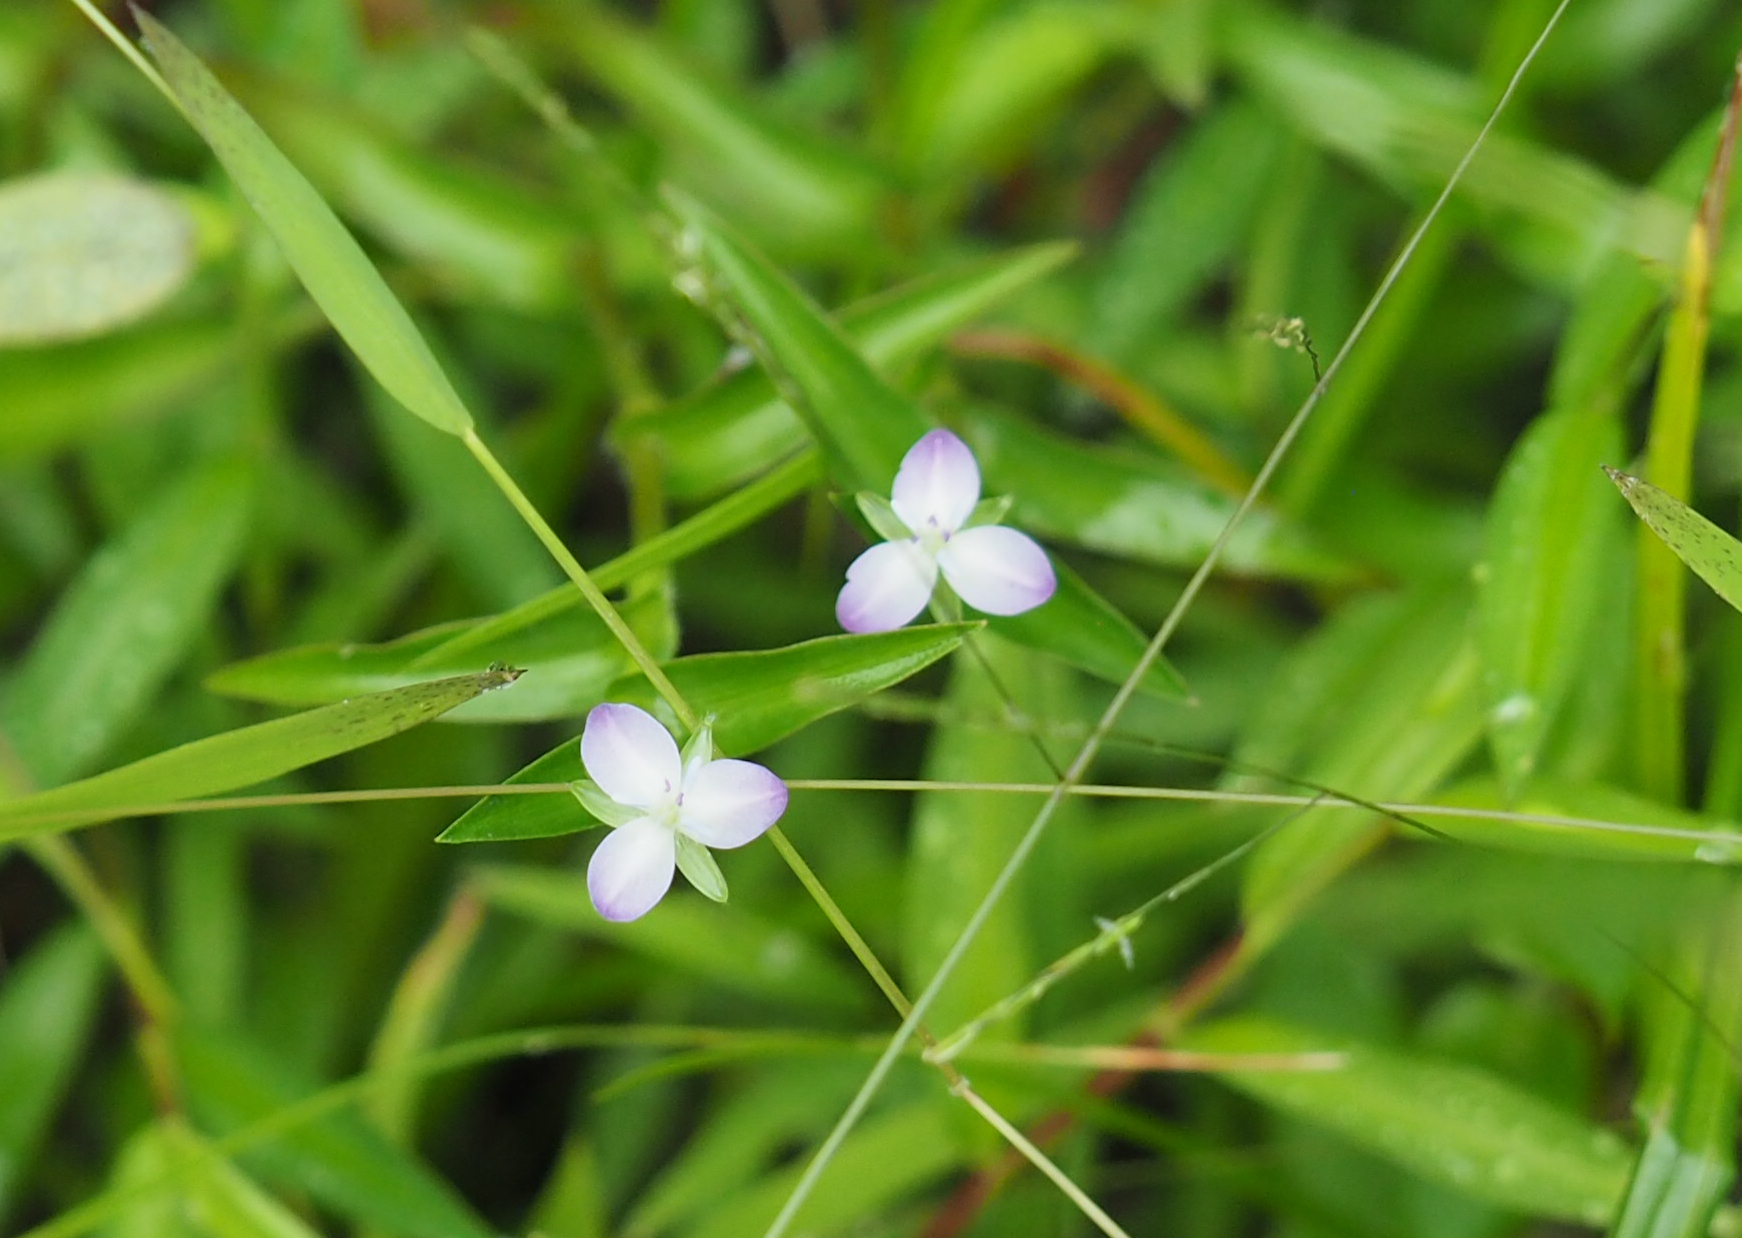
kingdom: Plantae
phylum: Tracheophyta
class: Liliopsida
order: Commelinales
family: Commelinaceae
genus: Murdannia
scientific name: Murdannia keisak
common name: Wartremoving herb
